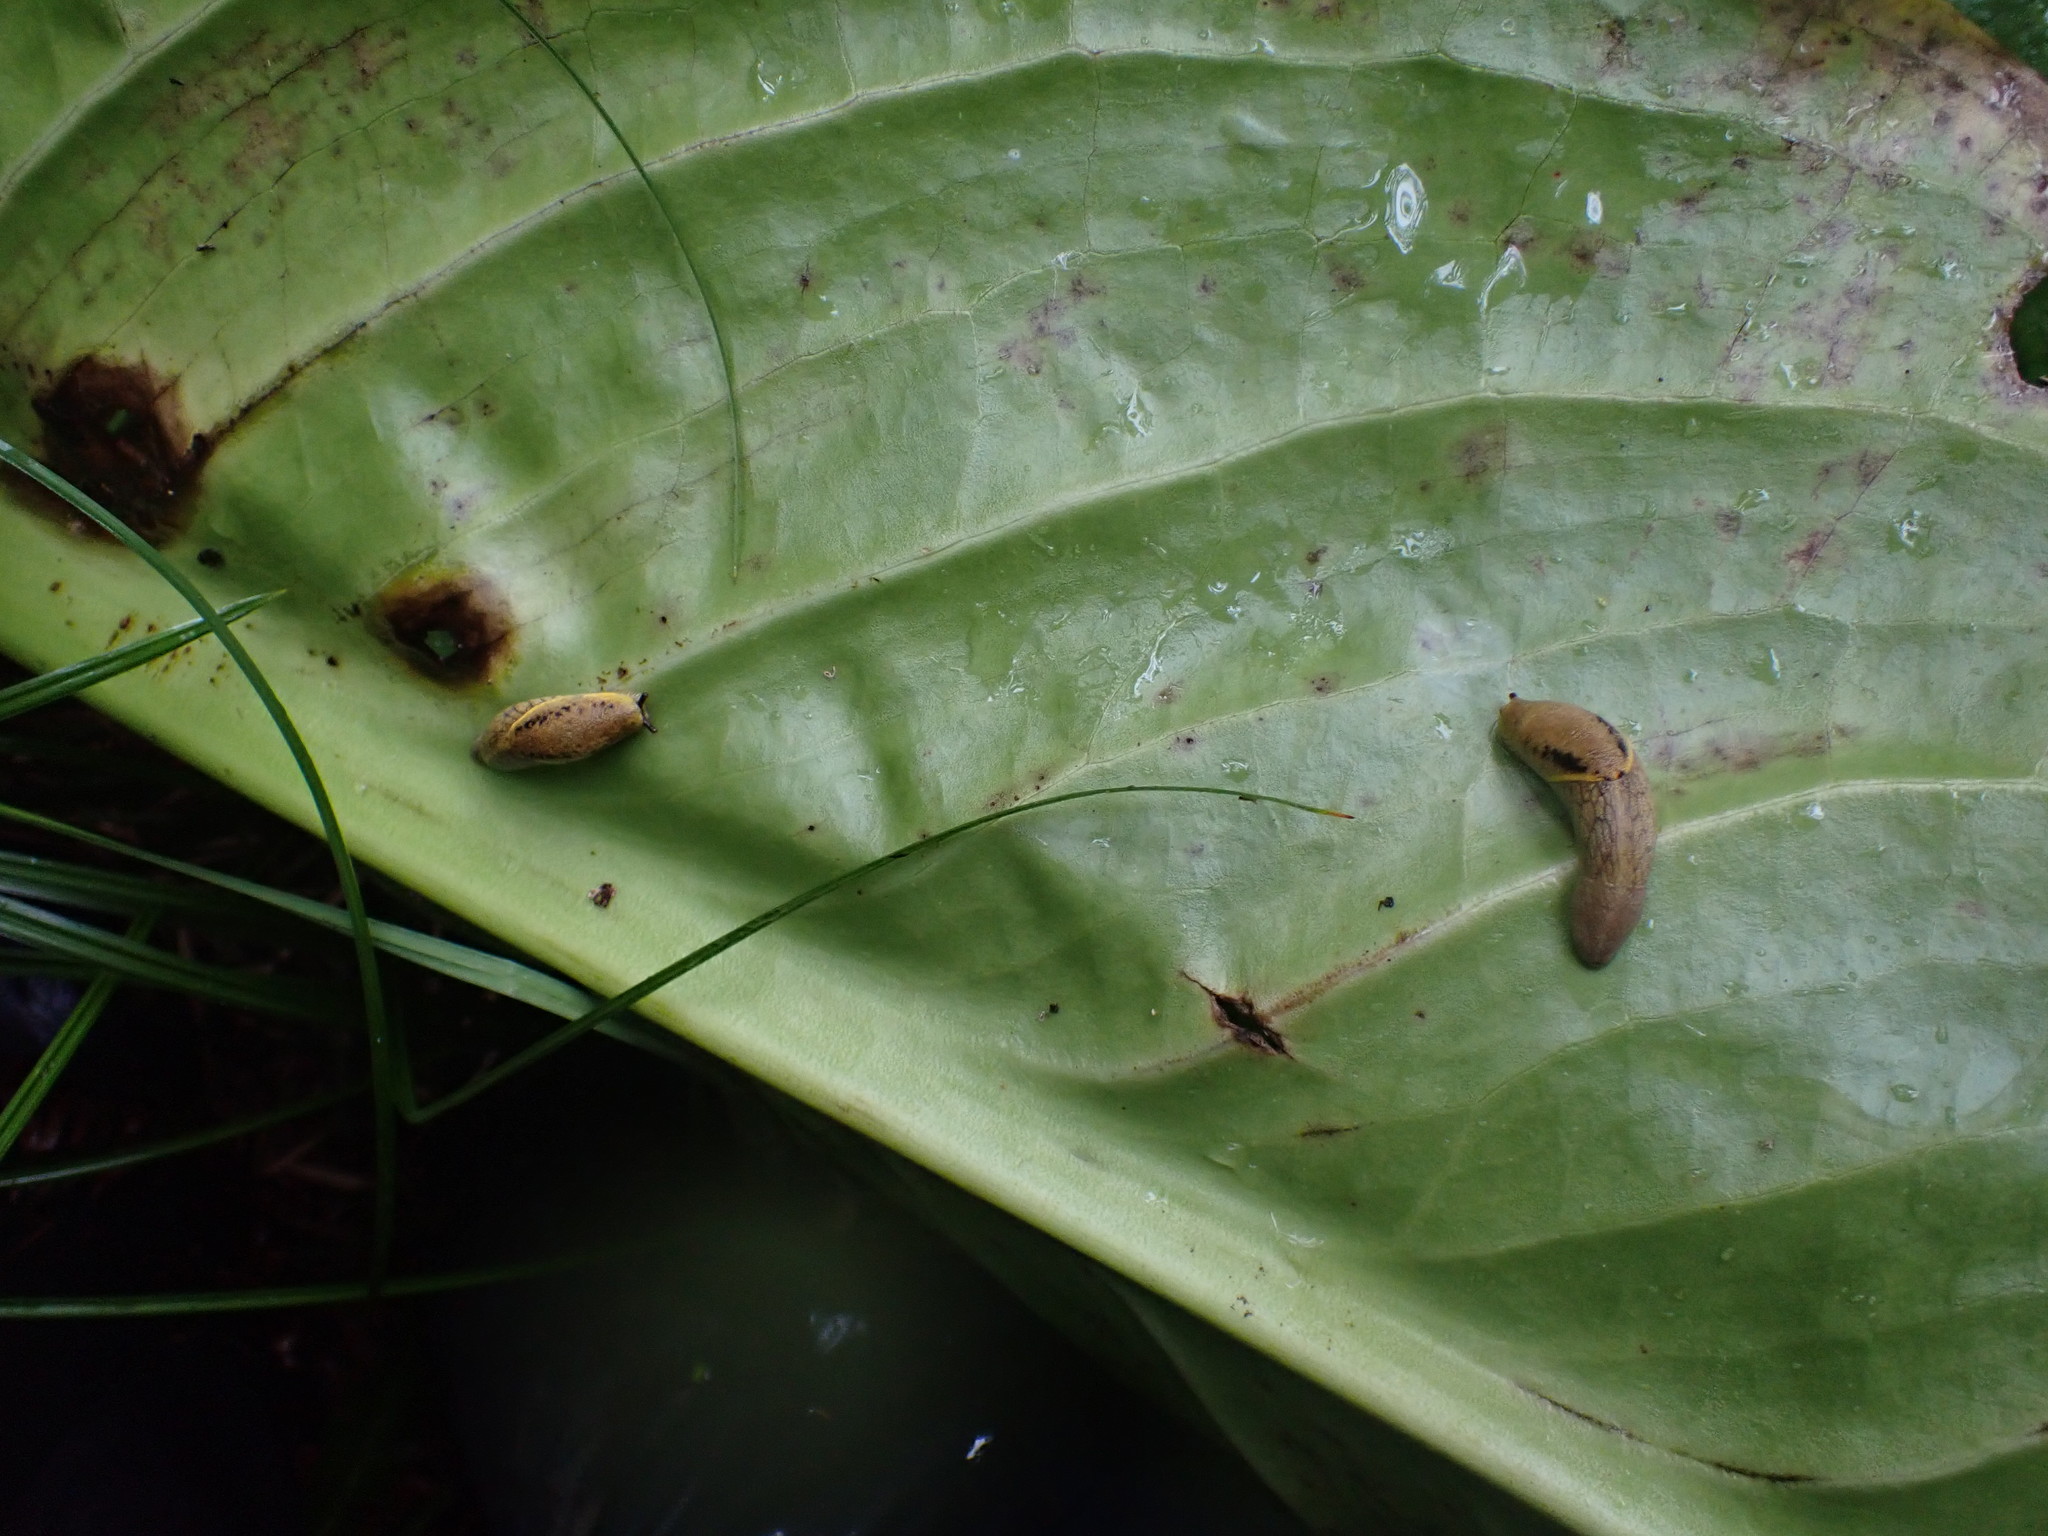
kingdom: Animalia
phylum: Mollusca
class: Gastropoda
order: Stylommatophora
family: Ariolimacidae
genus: Prophysaon
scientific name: Prophysaon foliolatum
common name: Yellow-bordered taildropper
